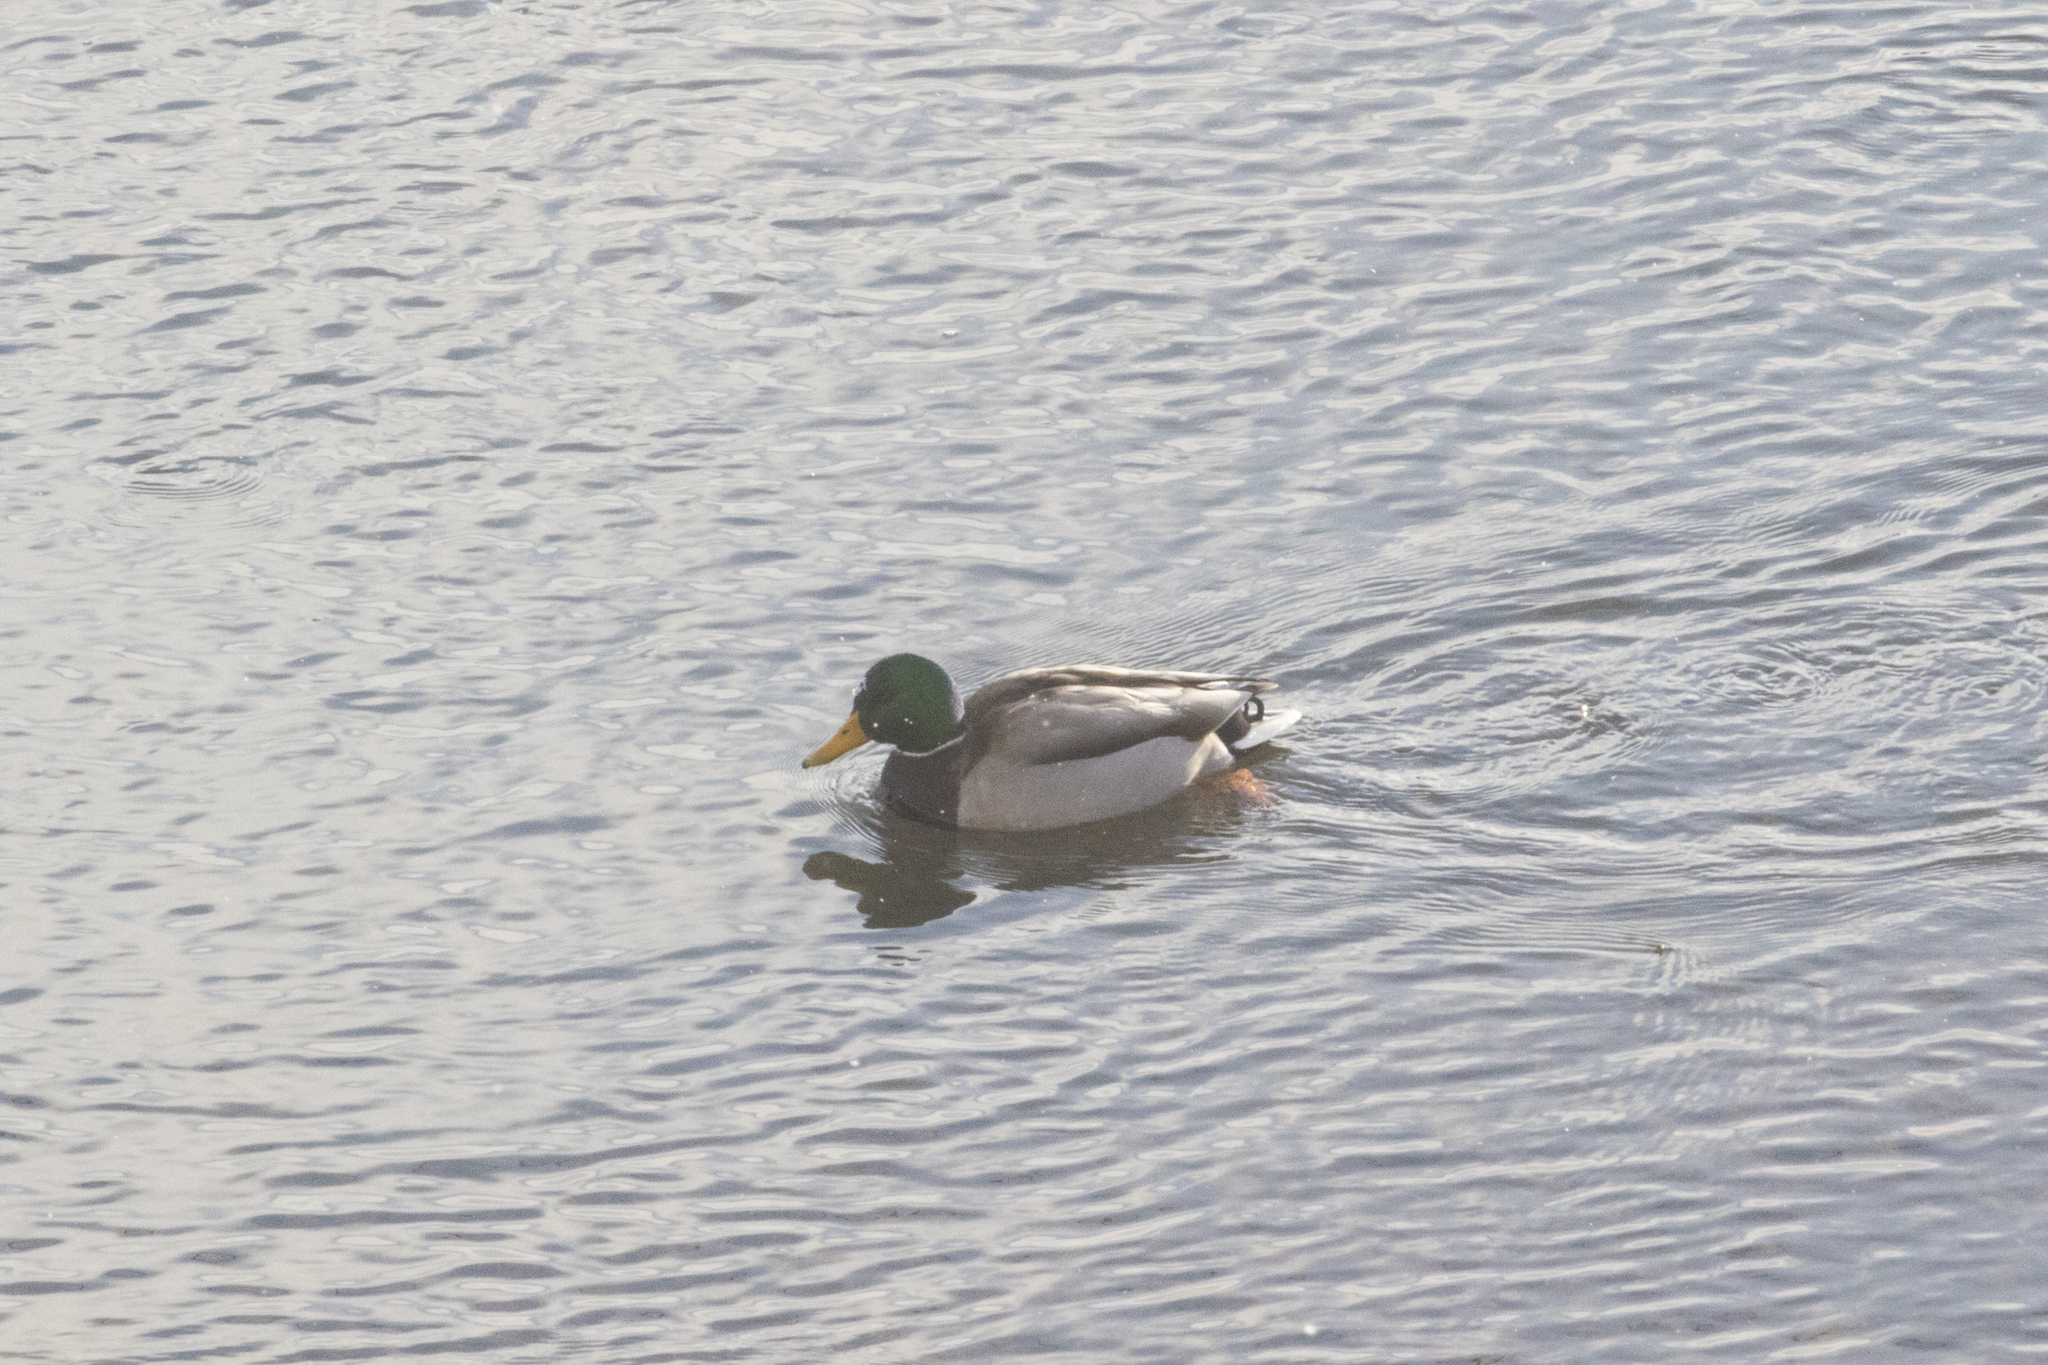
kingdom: Animalia
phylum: Chordata
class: Aves
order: Anseriformes
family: Anatidae
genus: Anas
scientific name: Anas platyrhynchos
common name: Mallard
